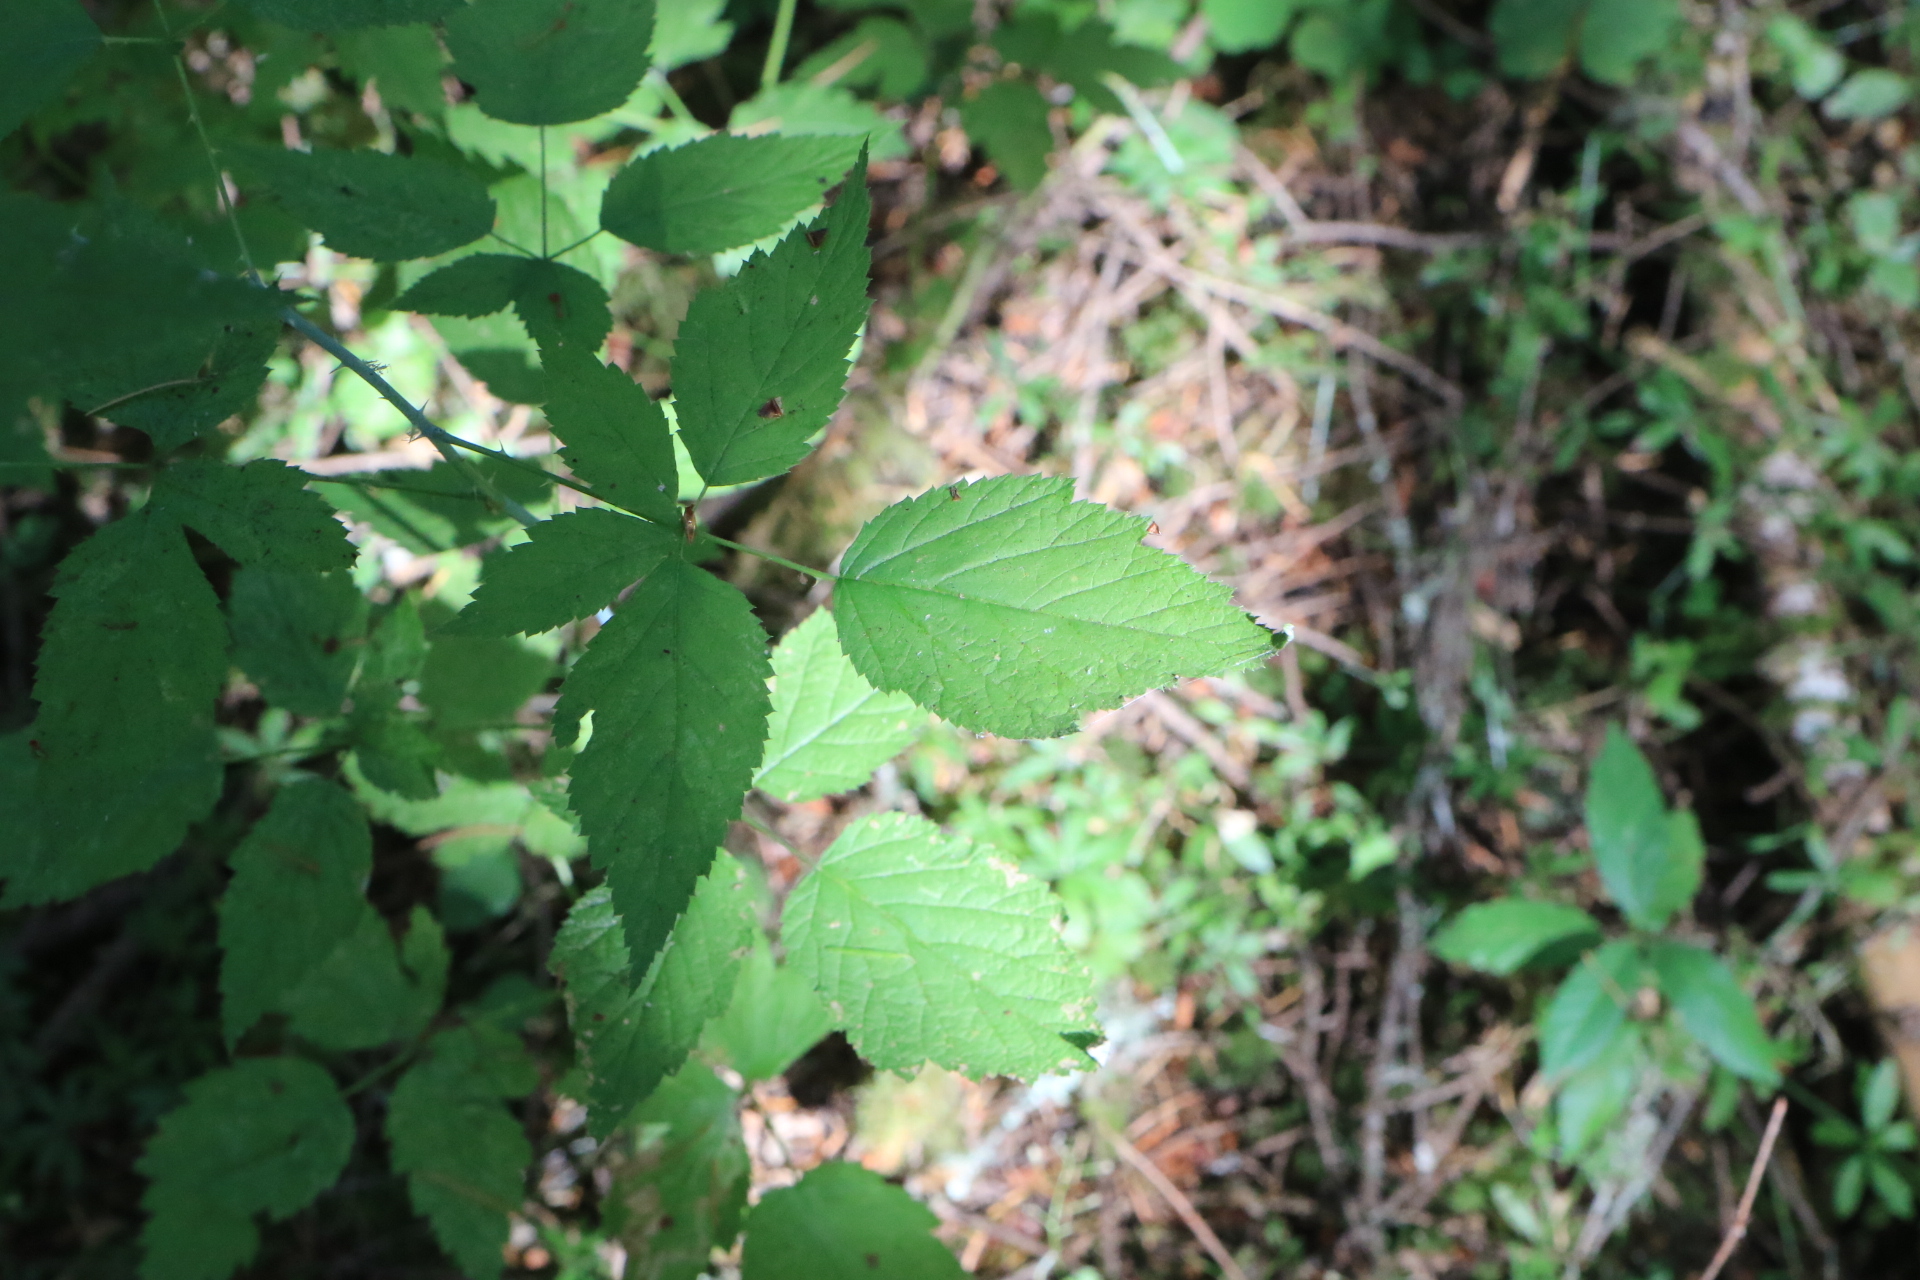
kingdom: Plantae
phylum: Tracheophyta
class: Magnoliopsida
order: Rosales
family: Rosaceae
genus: Rubus
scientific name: Rubus leucodermis
